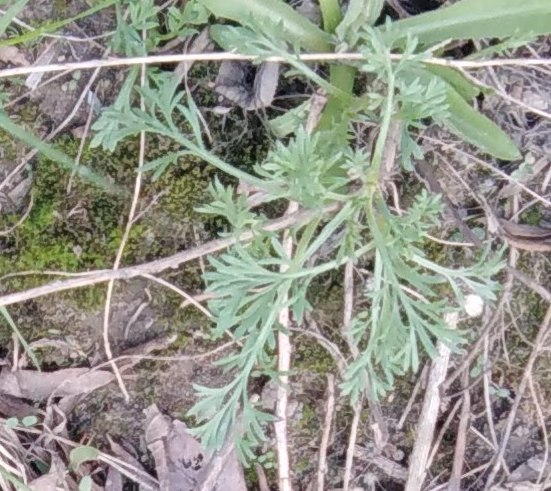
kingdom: Plantae
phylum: Tracheophyta
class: Magnoliopsida
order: Asterales
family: Asteraceae
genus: Artemisia
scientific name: Artemisia absinthium
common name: Wormwood
